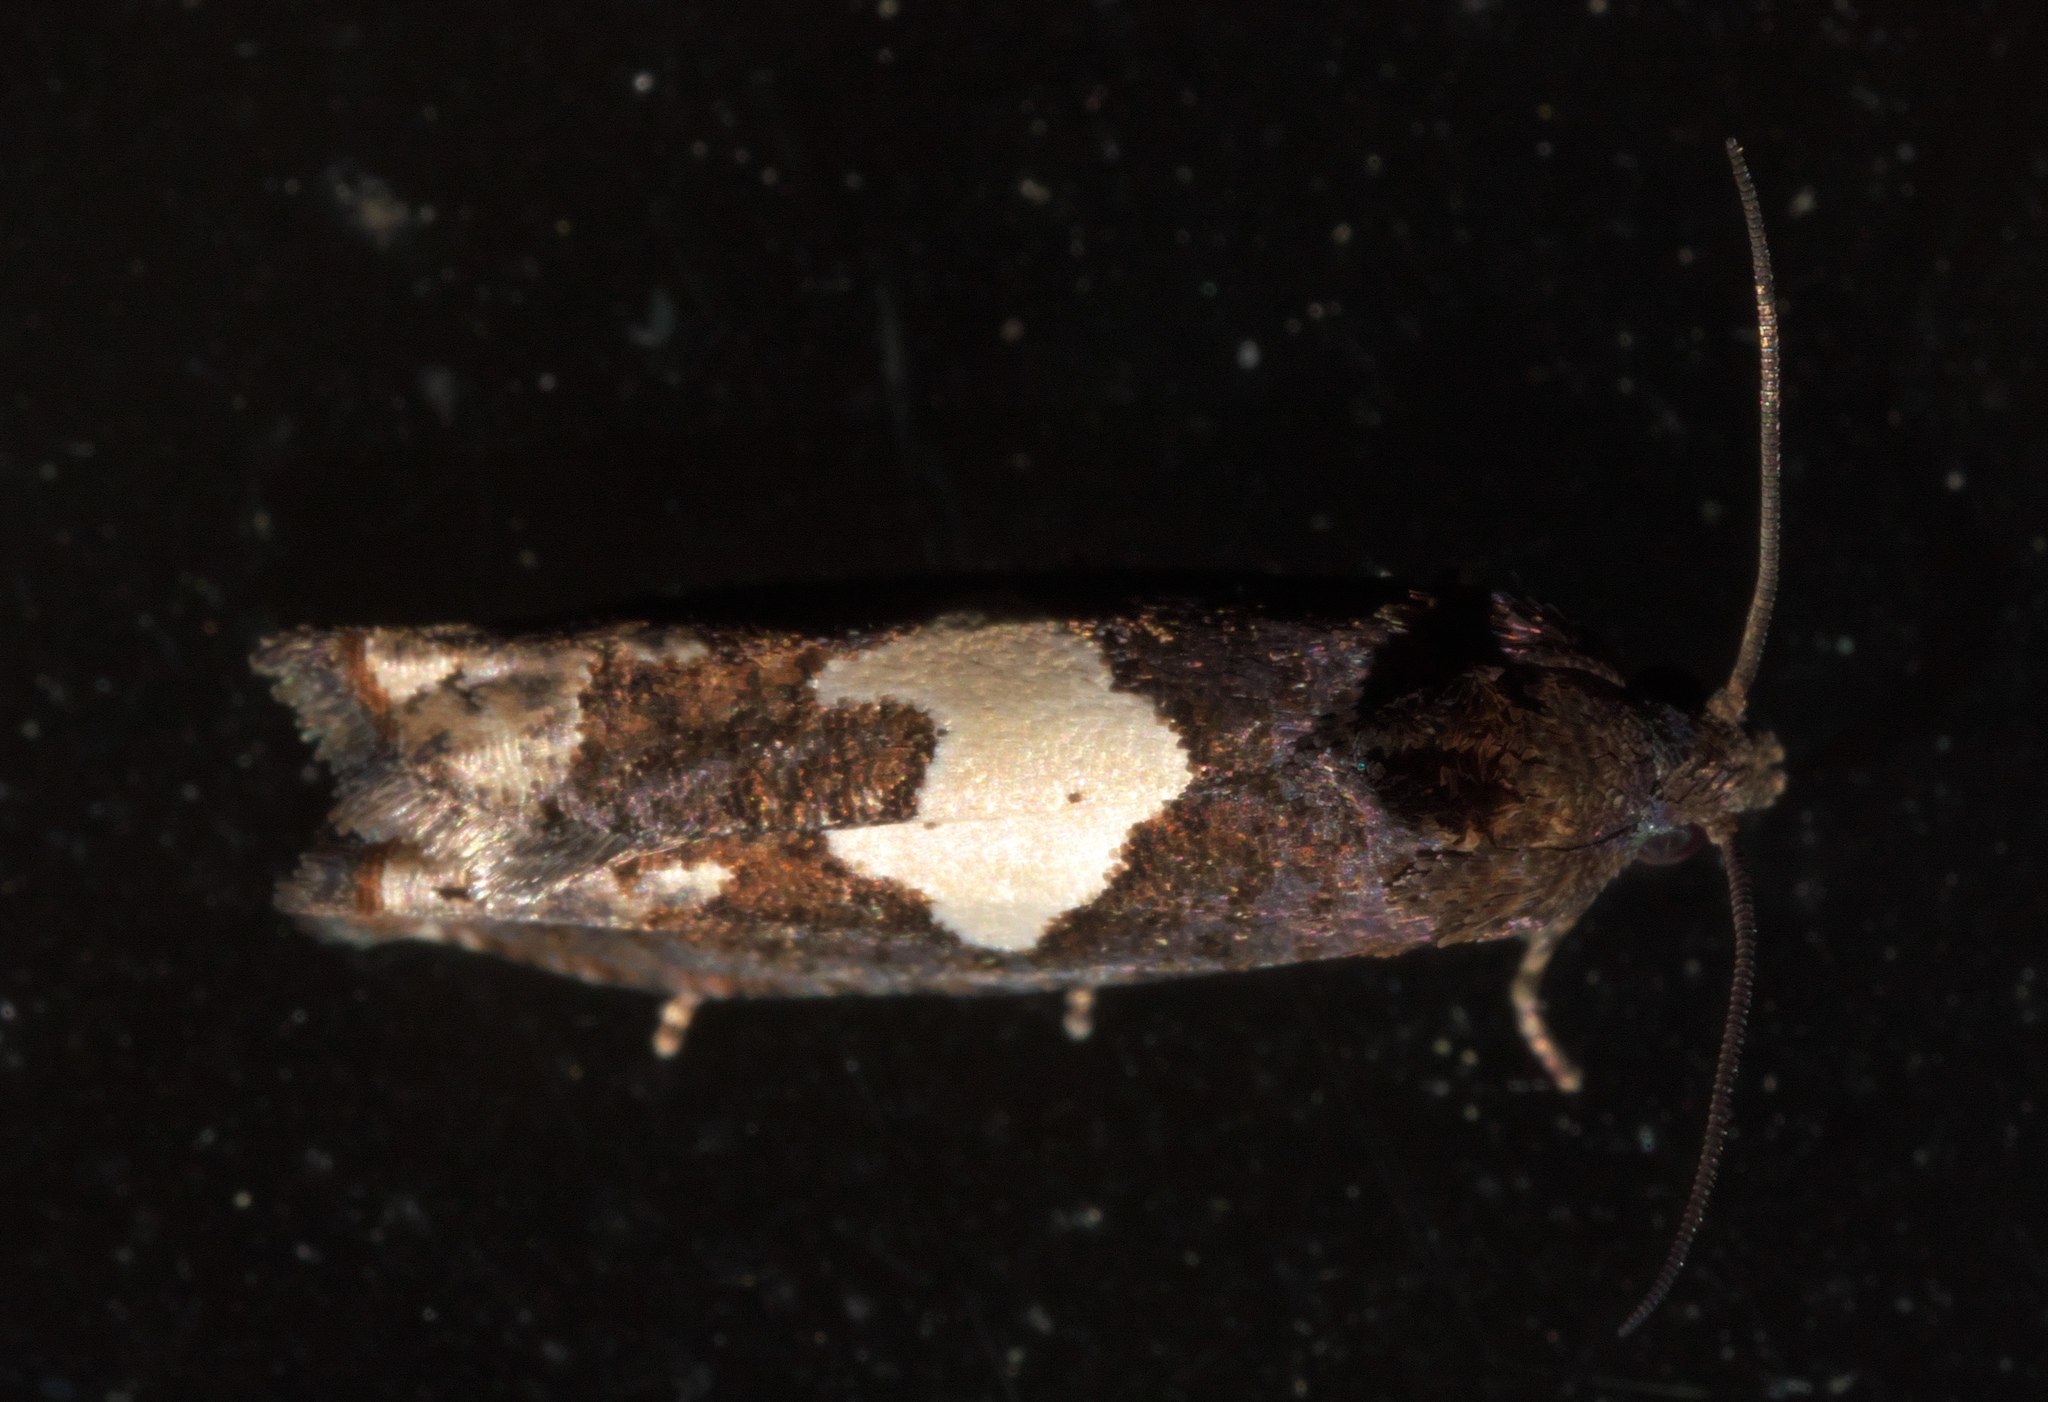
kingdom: Animalia
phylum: Arthropoda
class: Insecta
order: Lepidoptera
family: Tortricidae
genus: Epiblema
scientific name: Epiblema otiosana
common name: Bidens borer moth
